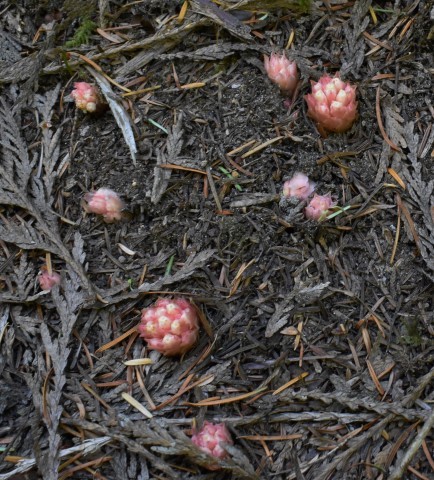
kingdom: Plantae
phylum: Tracheophyta
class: Magnoliopsida
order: Ericales
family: Ericaceae
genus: Hemitomes
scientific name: Hemitomes congestum
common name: Cone plant
